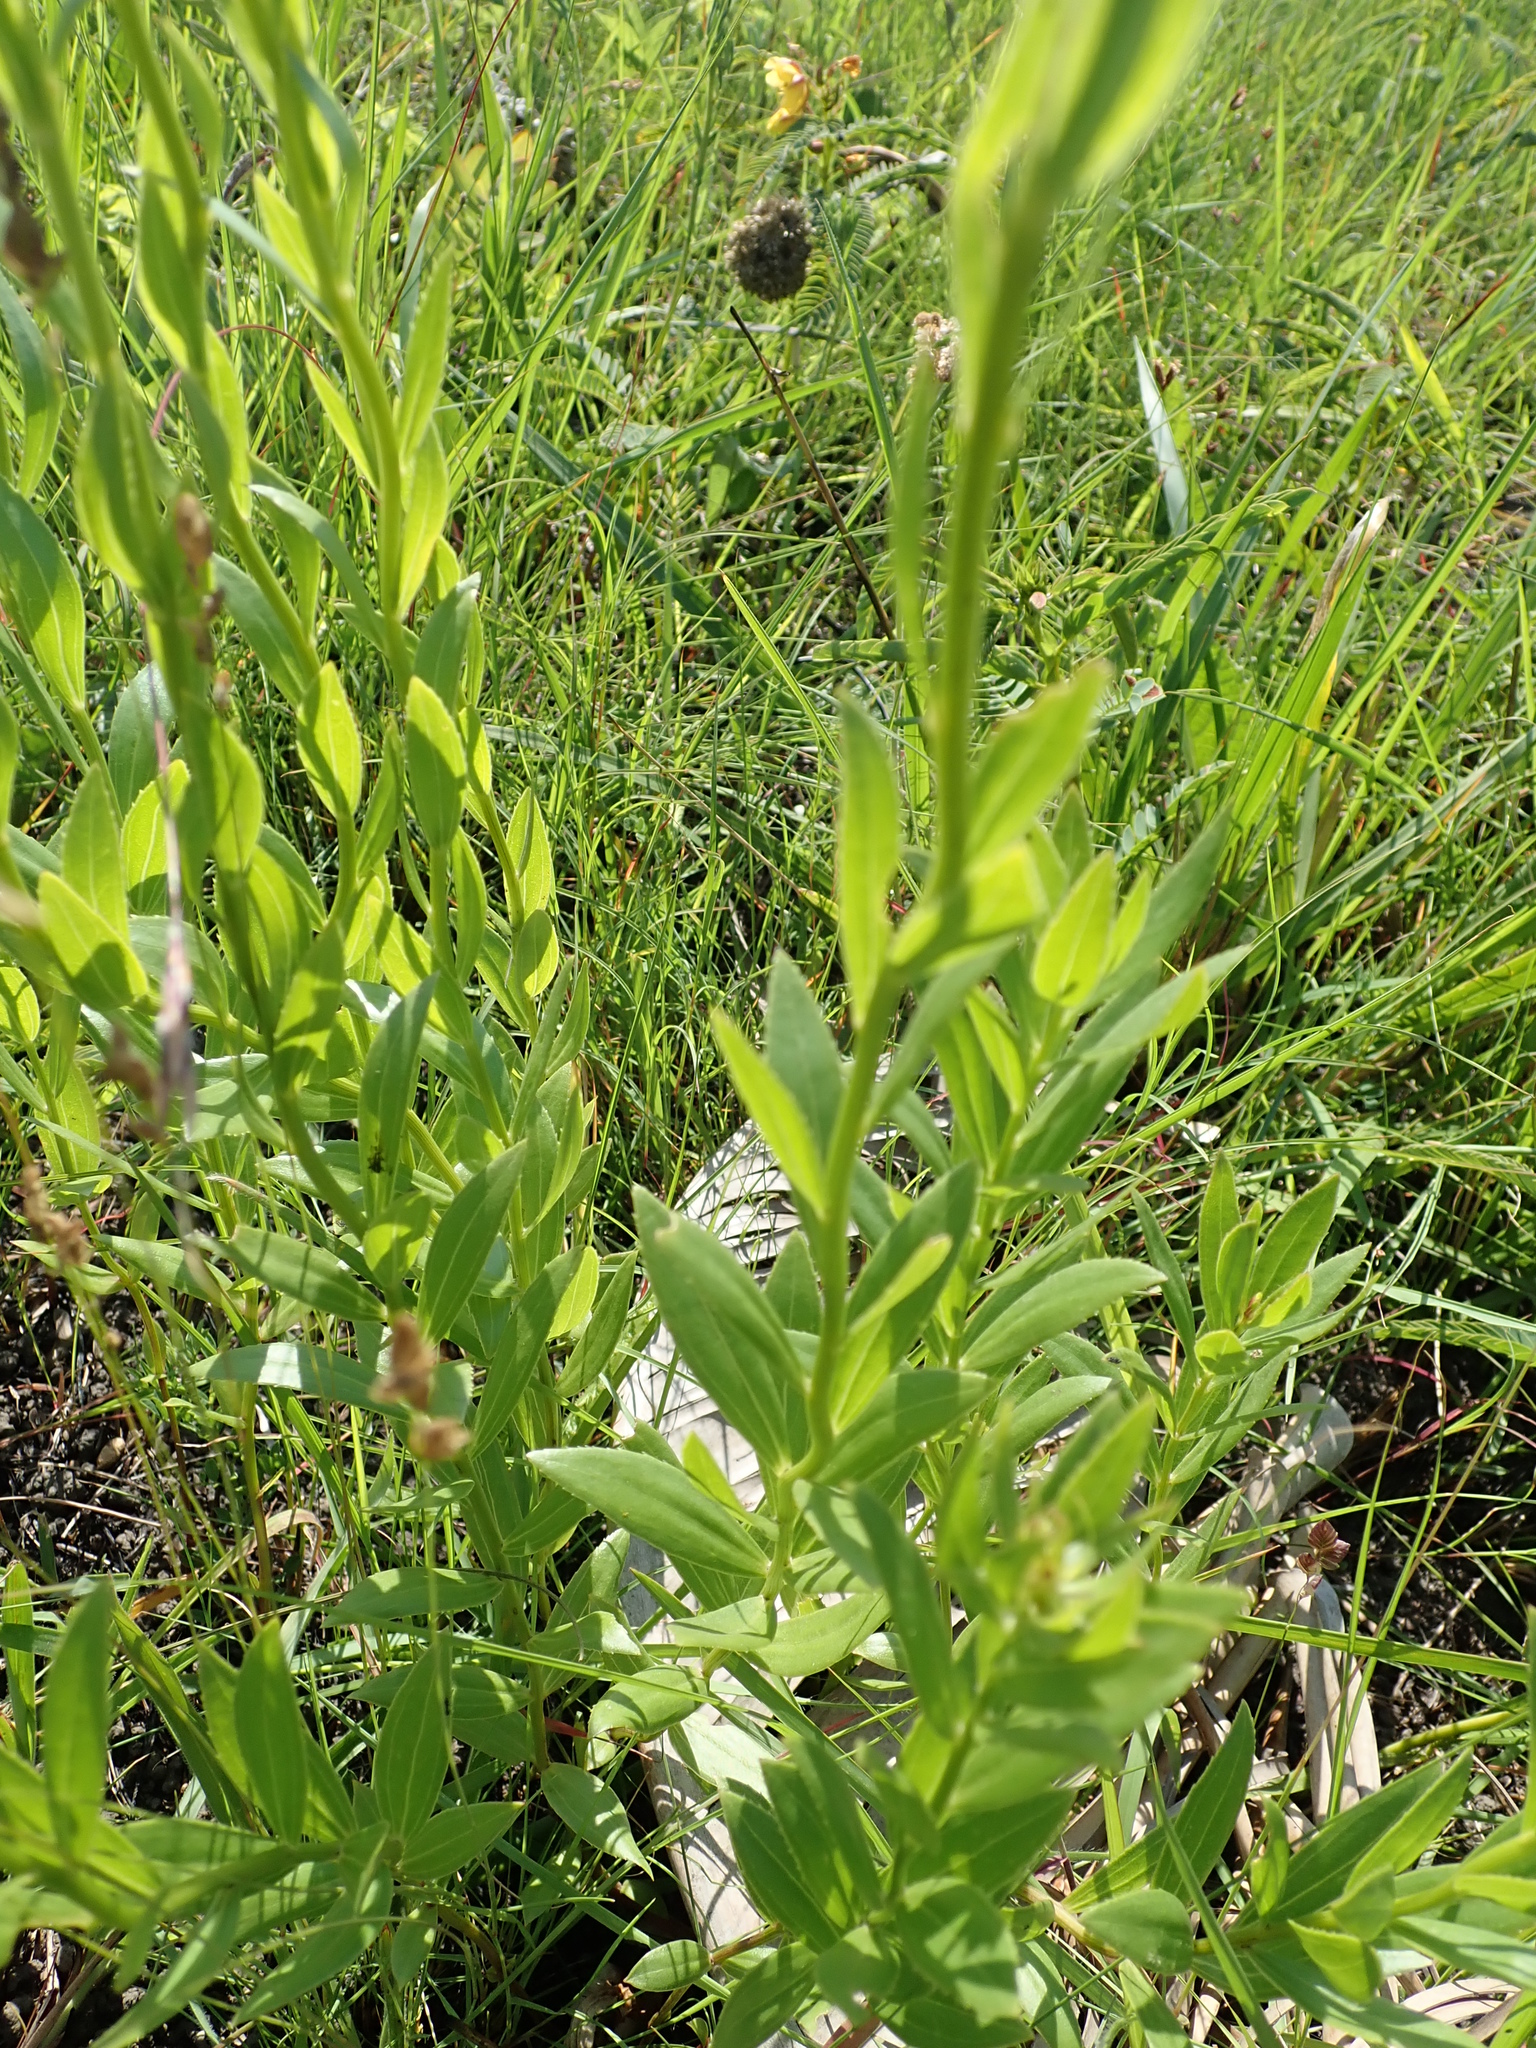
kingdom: Plantae
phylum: Tracheophyta
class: Magnoliopsida
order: Asterales
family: Asteraceae
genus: Callilepis
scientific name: Callilepis laureola
